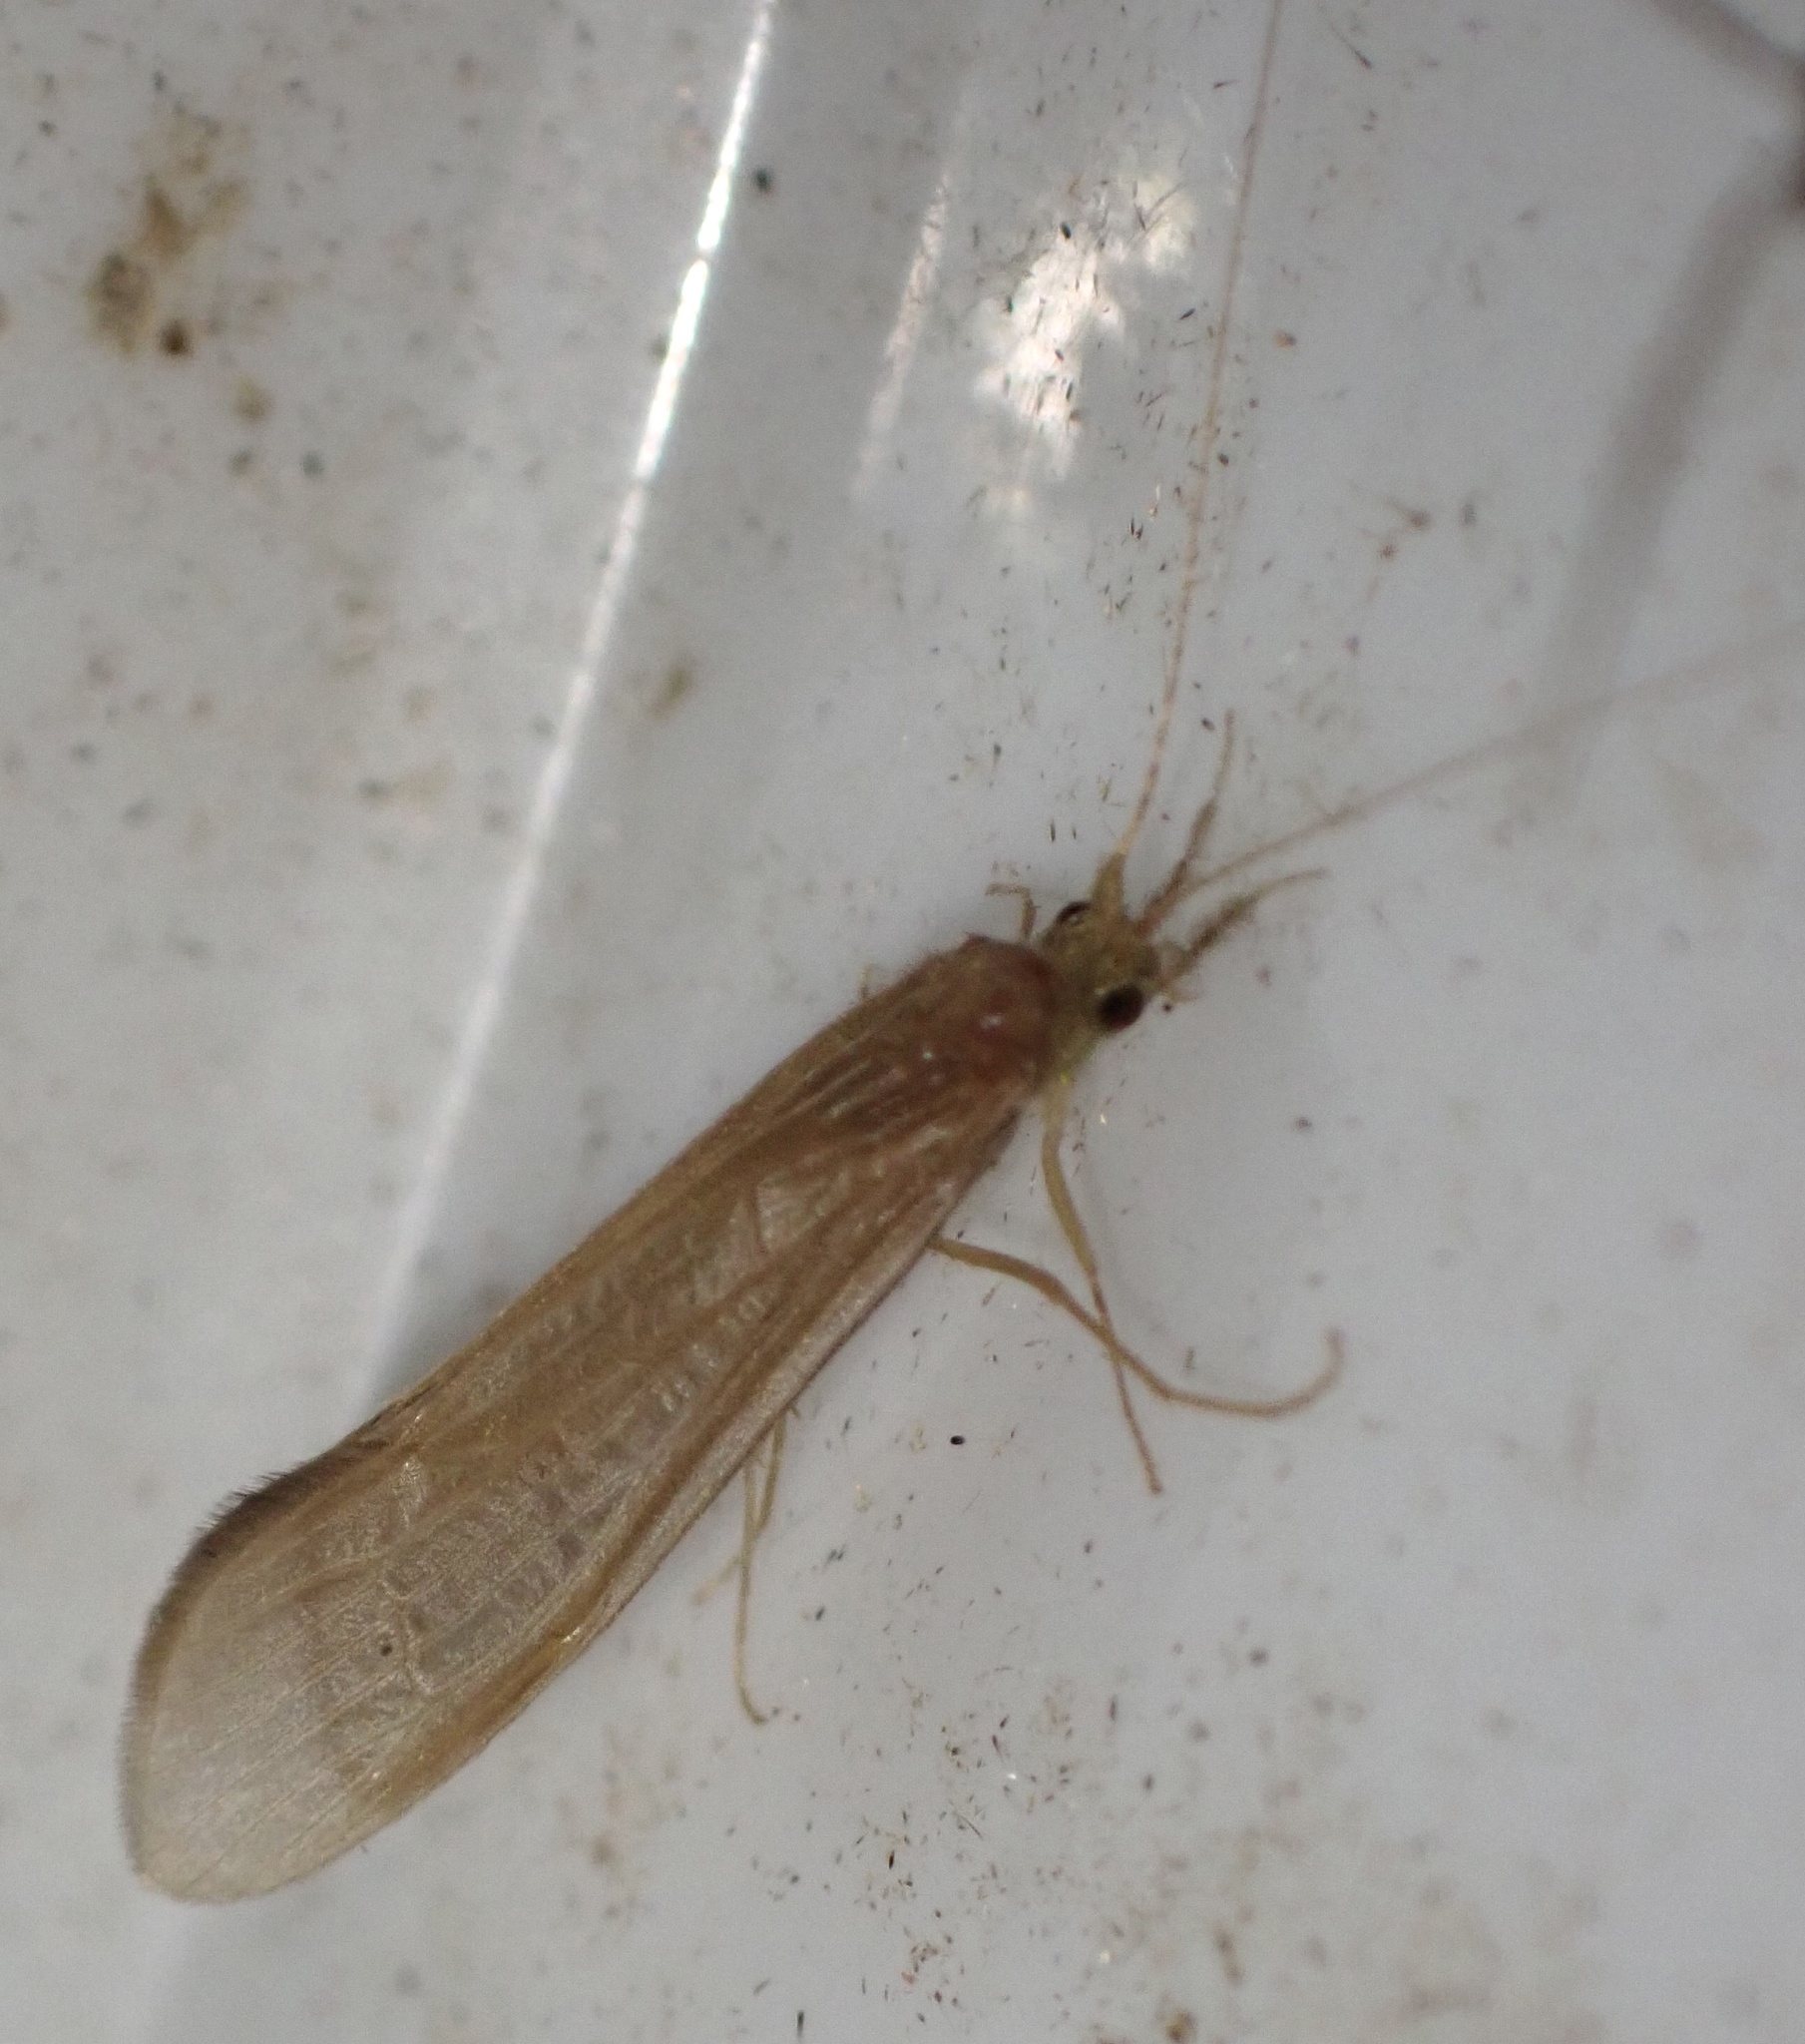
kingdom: Animalia
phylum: Arthropoda
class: Insecta
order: Trichoptera
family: Leptoceridae
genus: Oecetis
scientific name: Oecetis ochracea
